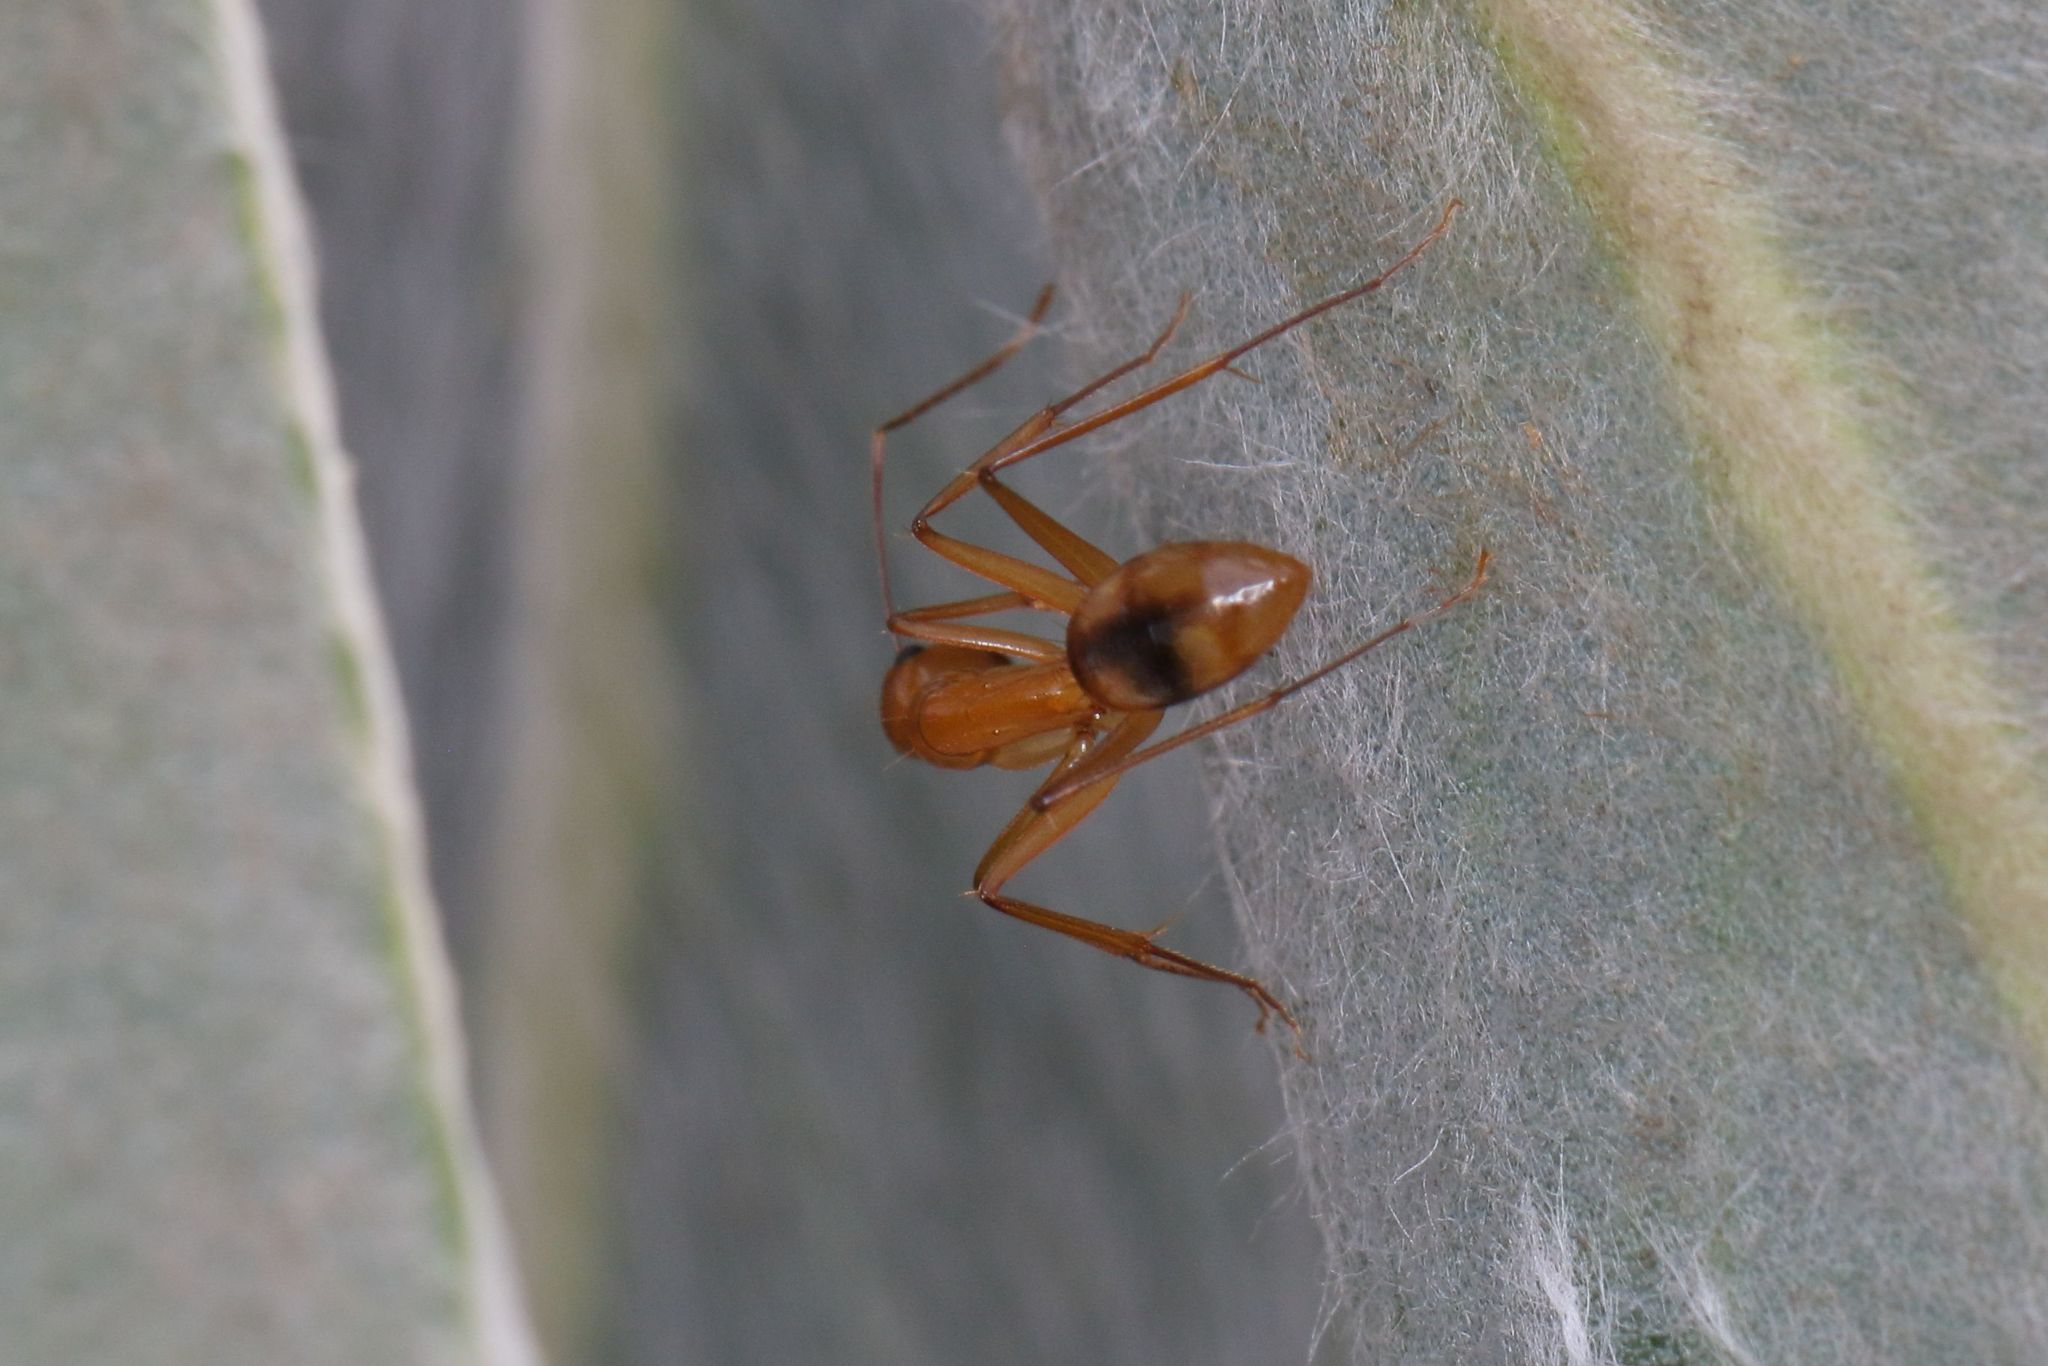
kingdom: Animalia
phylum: Arthropoda
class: Insecta
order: Hymenoptera
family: Formicidae
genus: Camponotus
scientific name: Camponotus maculatus
